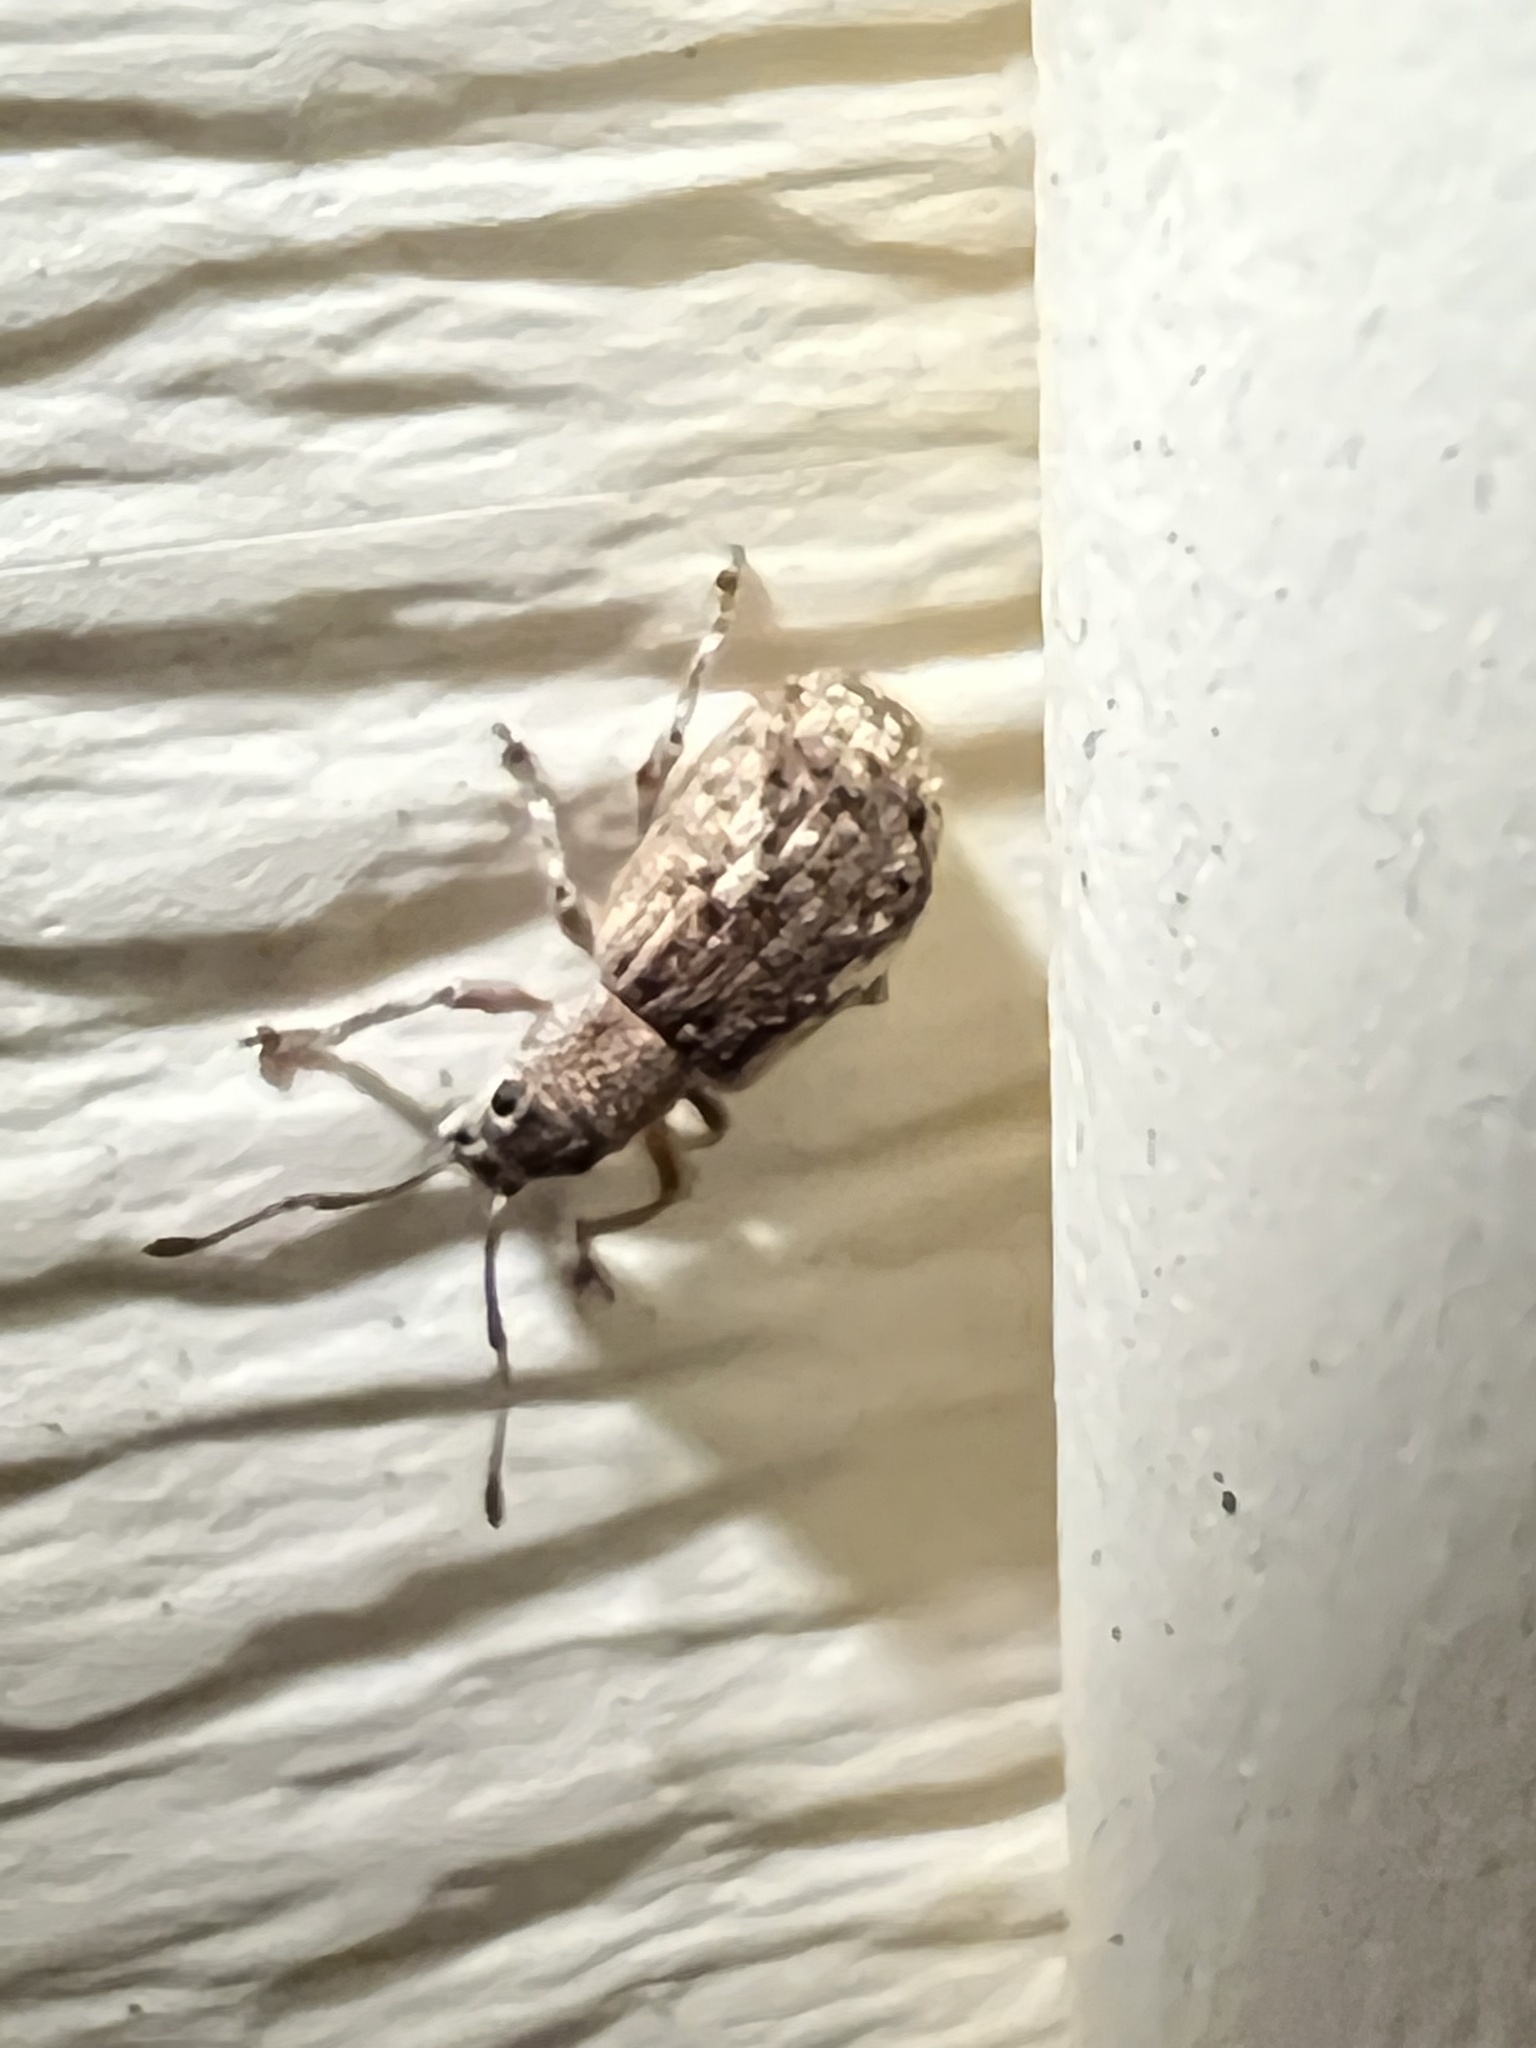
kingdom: Animalia
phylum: Arthropoda
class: Insecta
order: Coleoptera
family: Curculionidae
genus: Pseudoedophrys
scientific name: Pseudoedophrys hilleri
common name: Weevil
